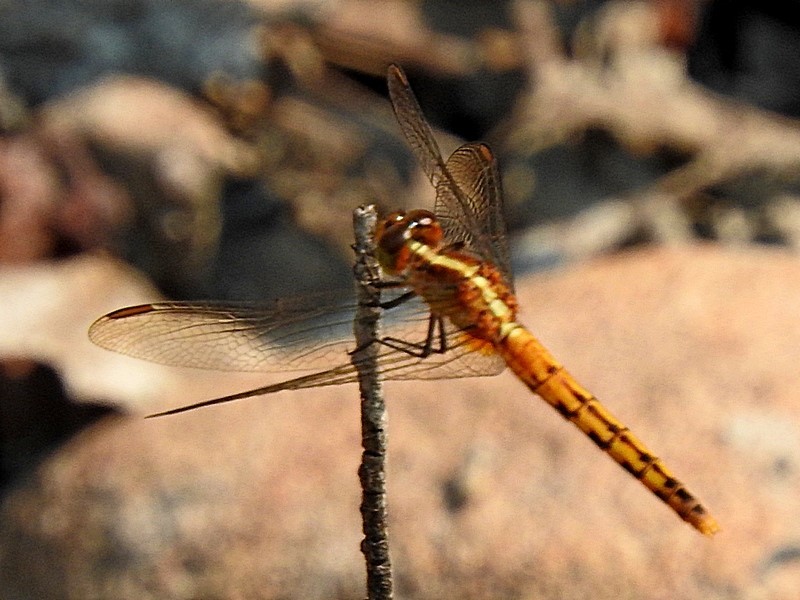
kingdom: Animalia
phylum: Arthropoda
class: Insecta
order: Odonata
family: Libellulidae
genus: Diplacodes
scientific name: Diplacodes melanopsis
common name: Black-faced percher
